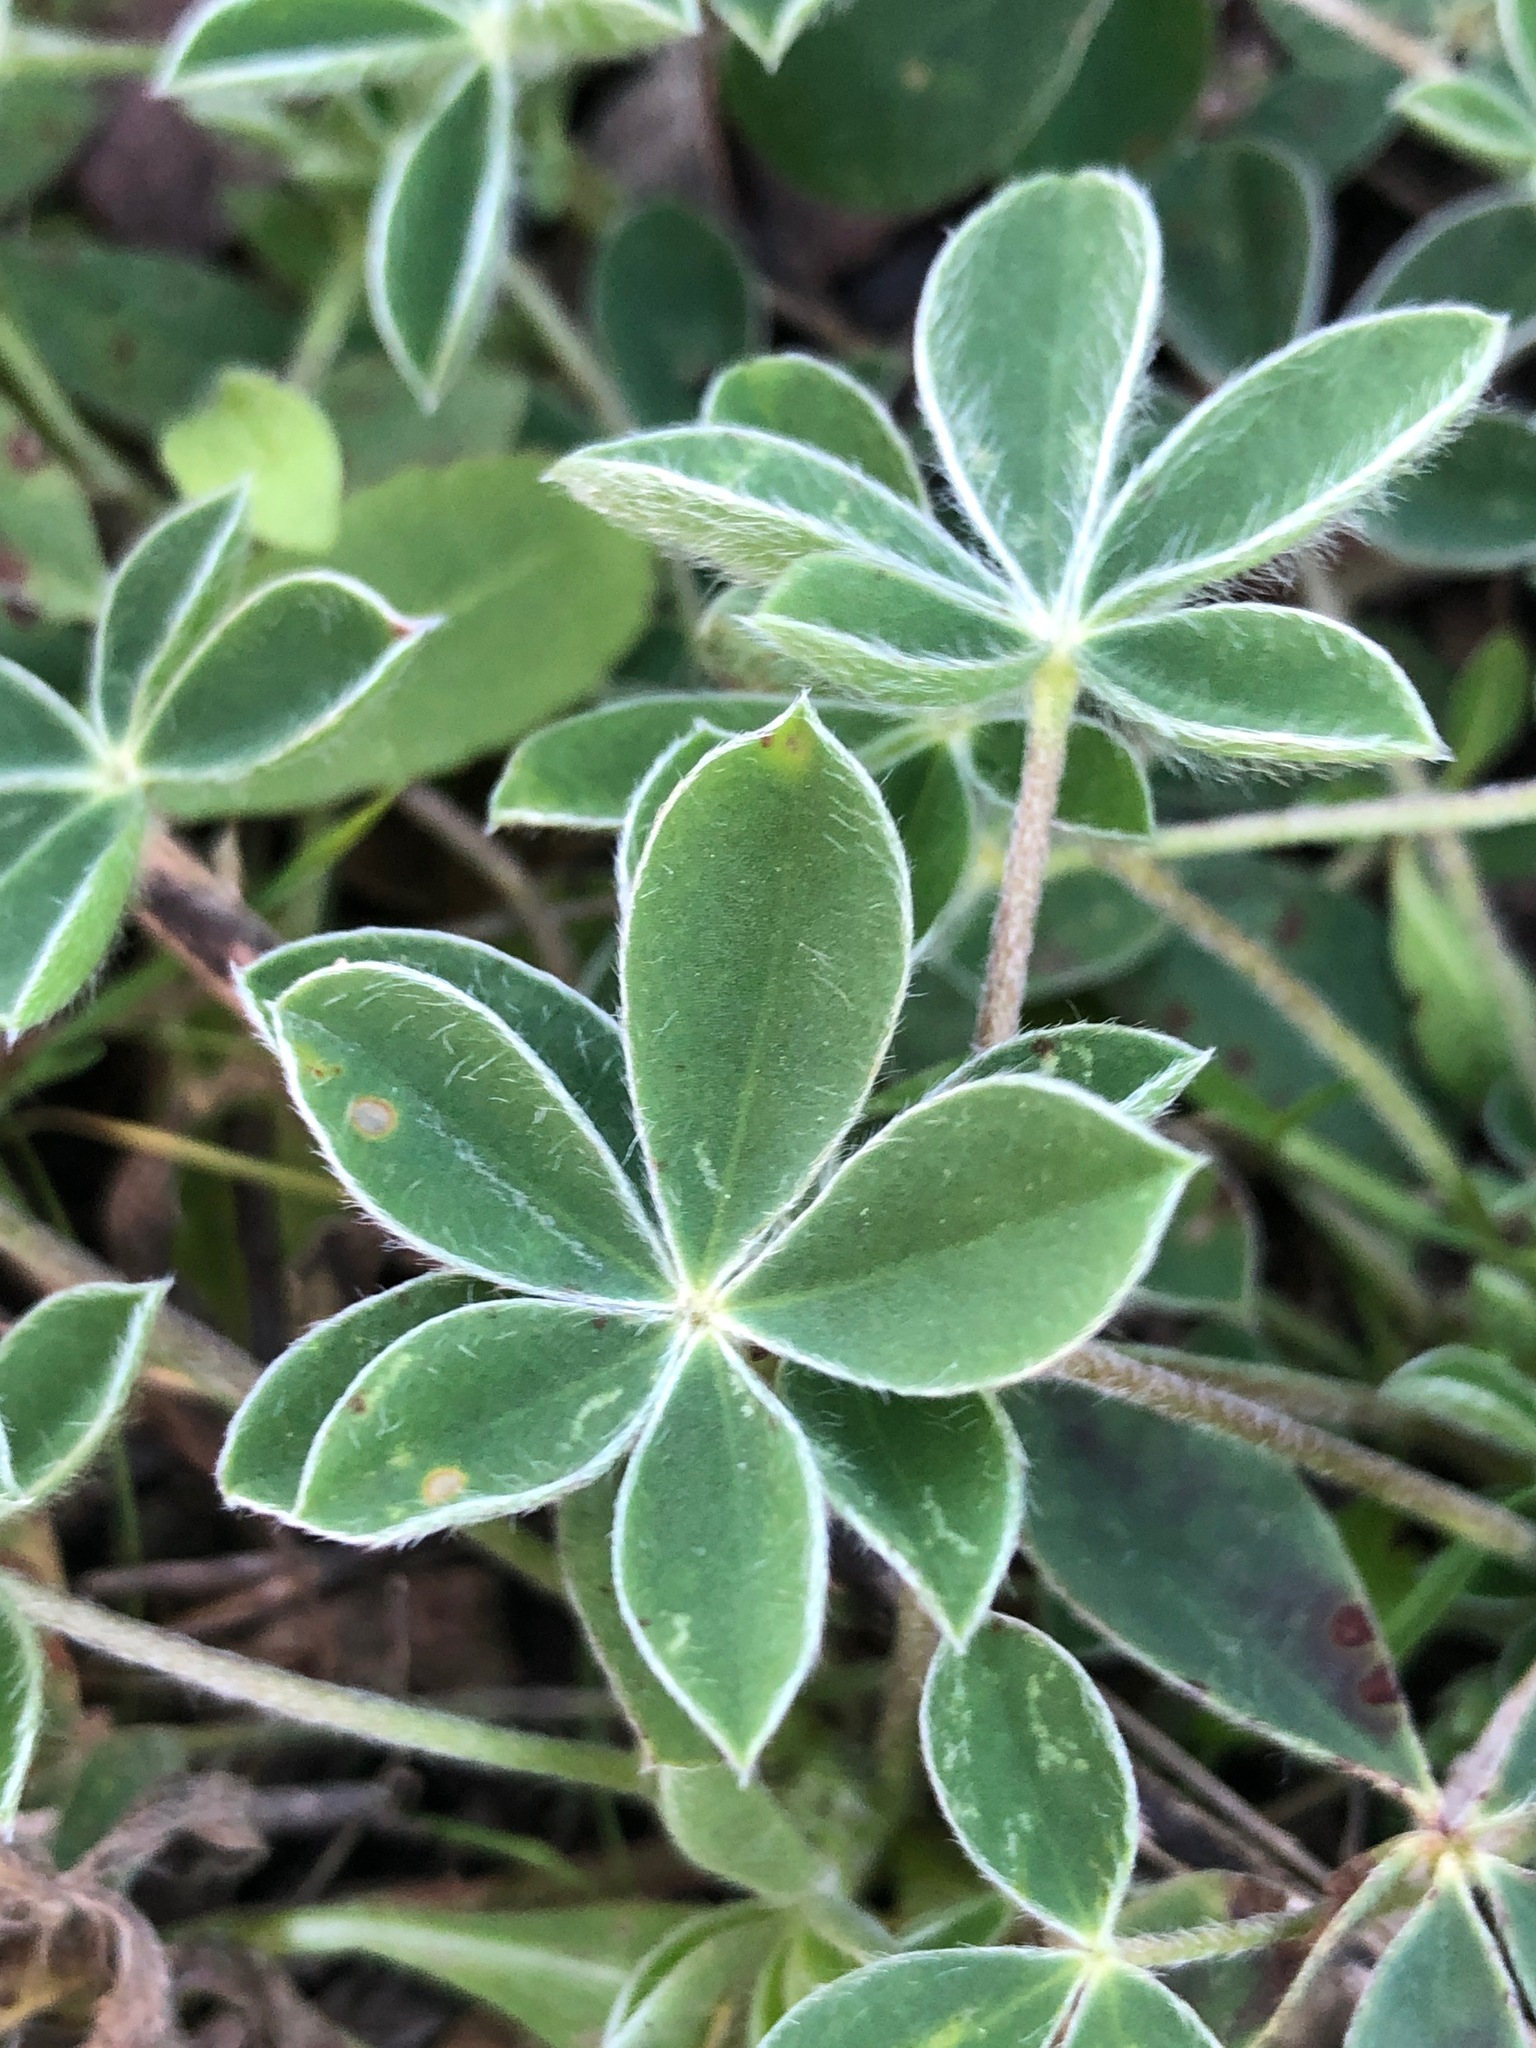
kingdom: Plantae
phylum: Tracheophyta
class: Magnoliopsida
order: Fabales
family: Fabaceae
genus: Lupinus
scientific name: Lupinus texensis
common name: Texas bluebonnet
